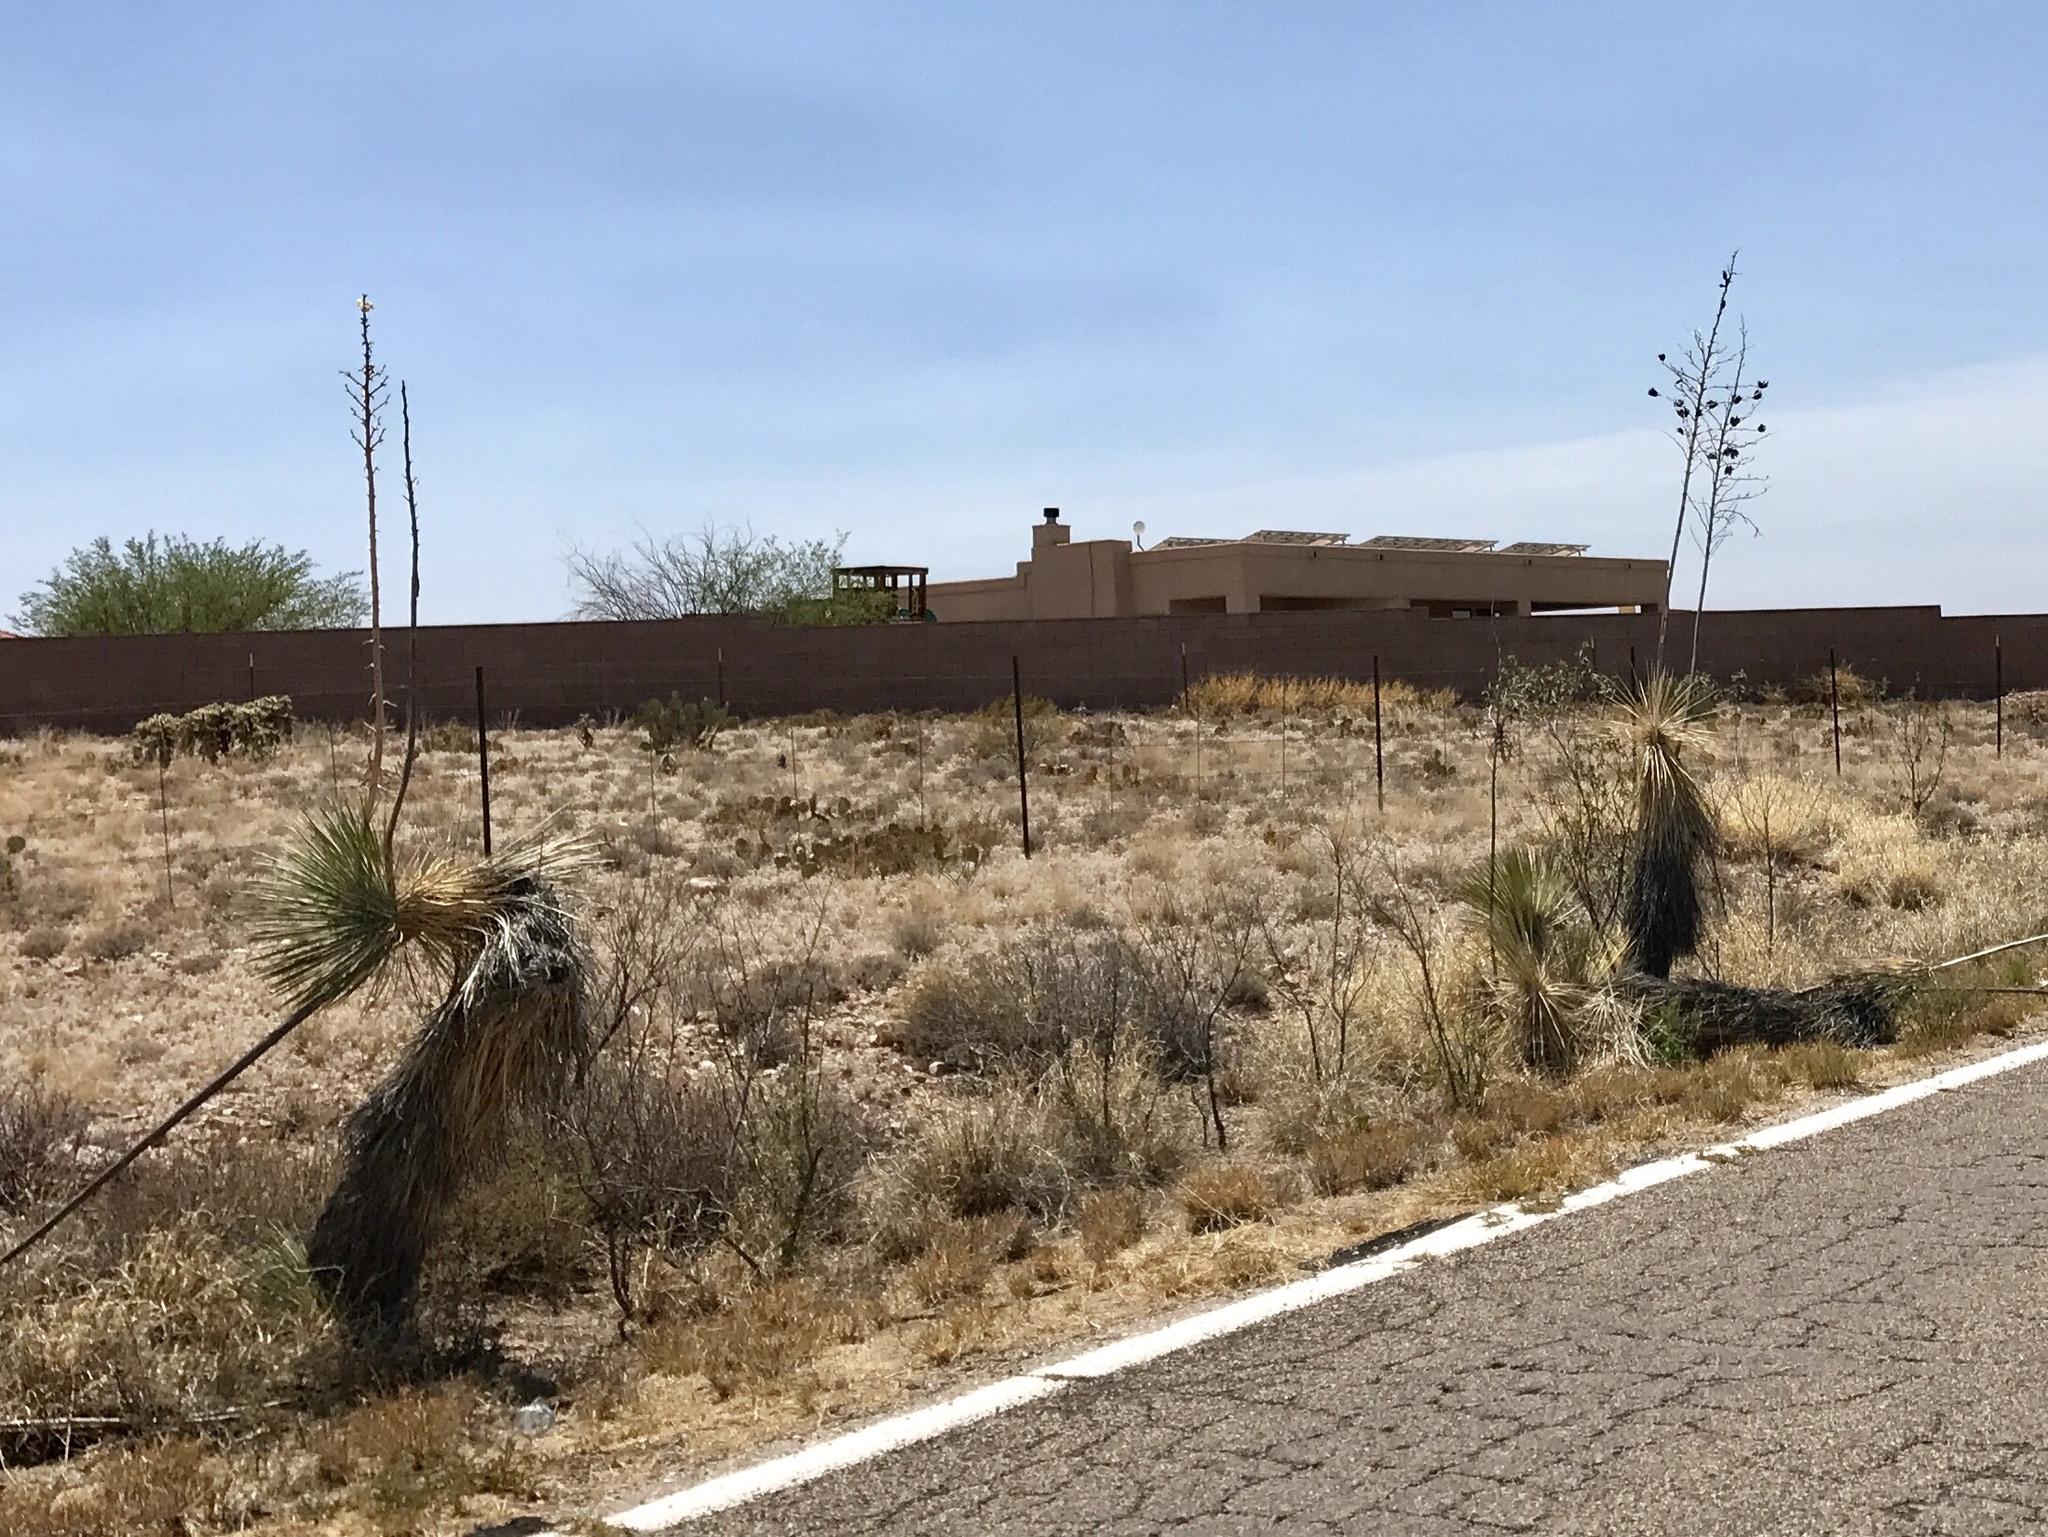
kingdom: Plantae
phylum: Tracheophyta
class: Liliopsida
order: Asparagales
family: Asparagaceae
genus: Yucca
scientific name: Yucca elata
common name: Palmella
